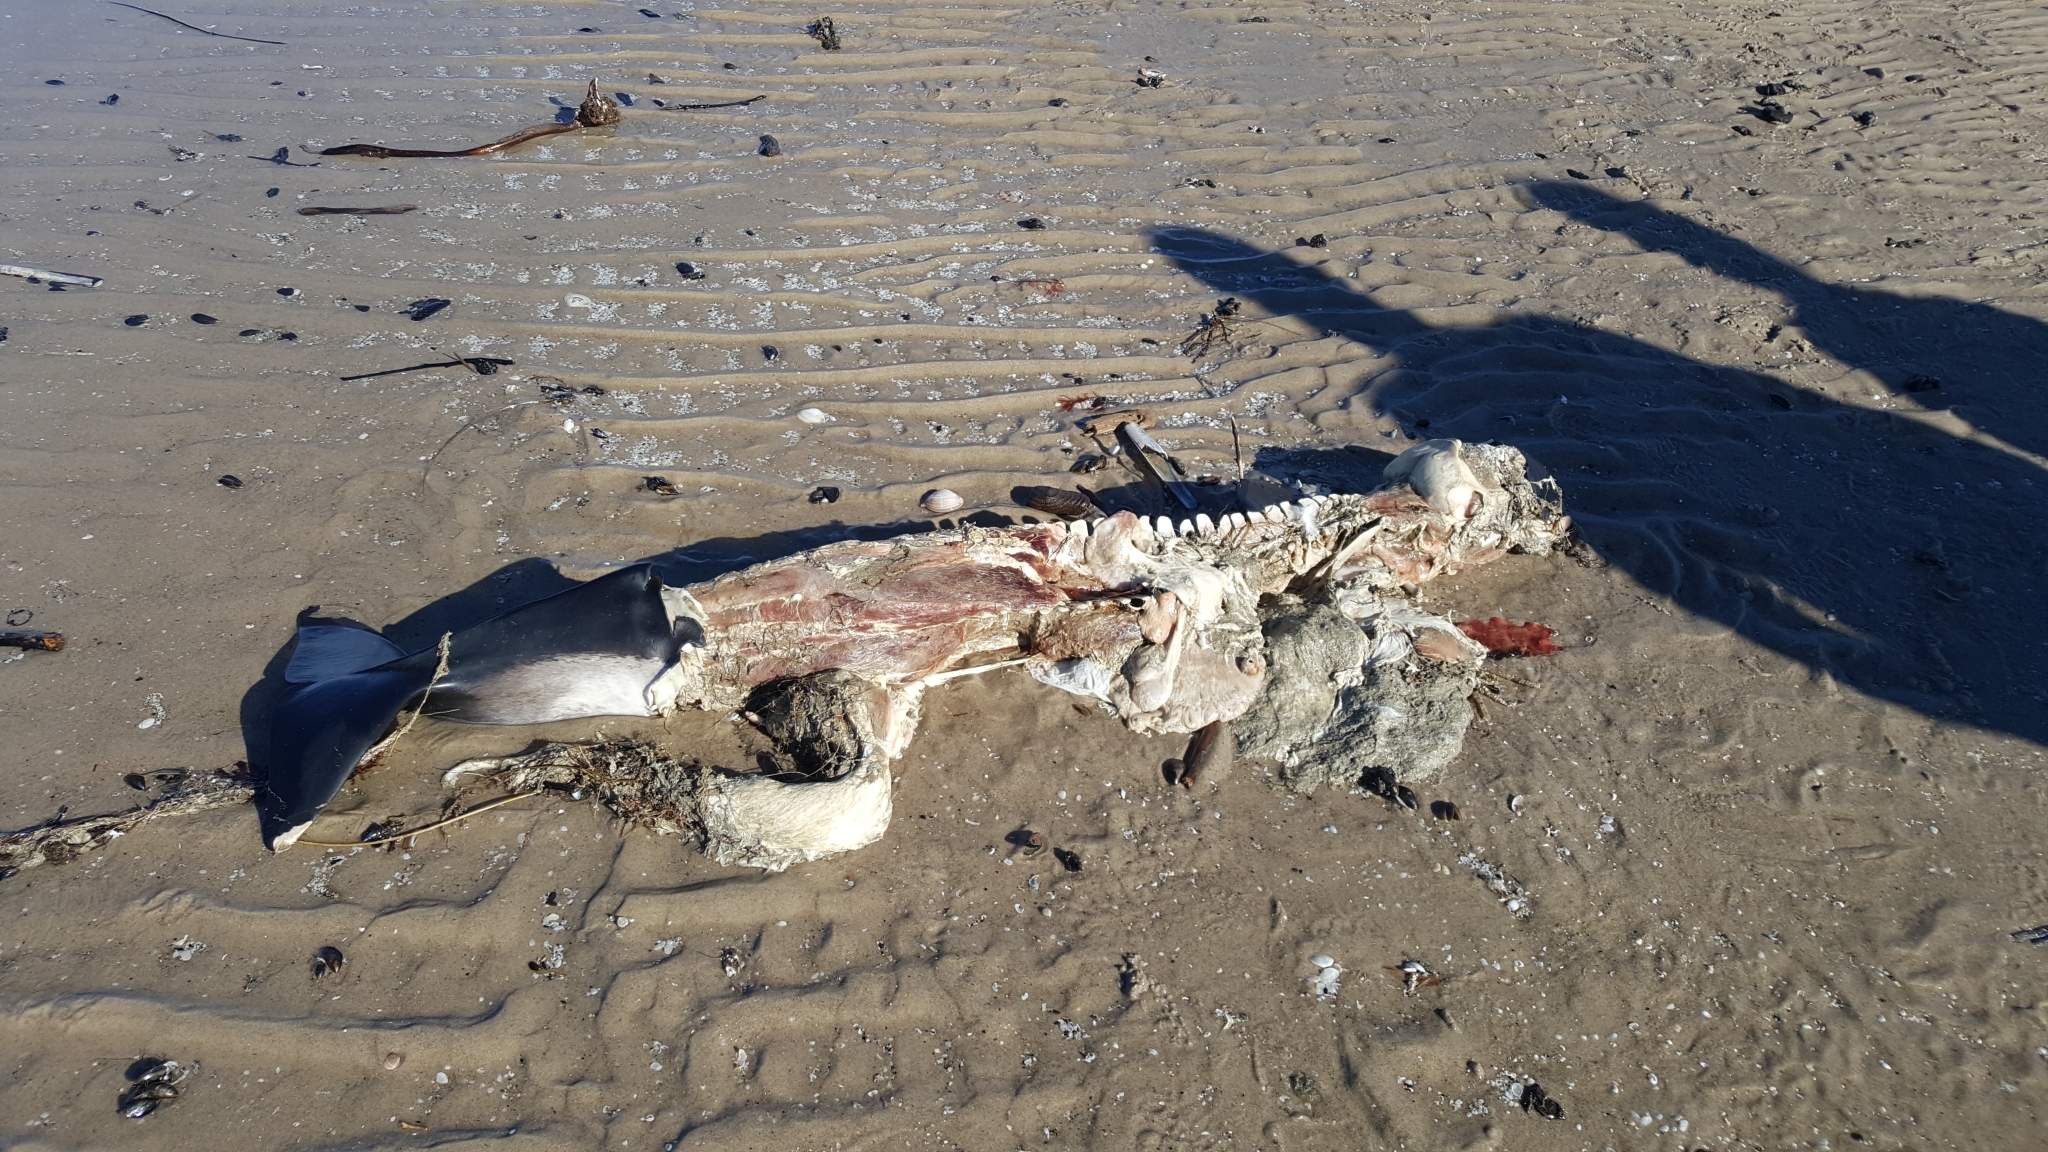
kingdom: Animalia
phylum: Chordata
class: Mammalia
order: Cetacea
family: Phocoenidae
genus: Phocoena
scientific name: Phocoena phocoena
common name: Harbor porpoise
